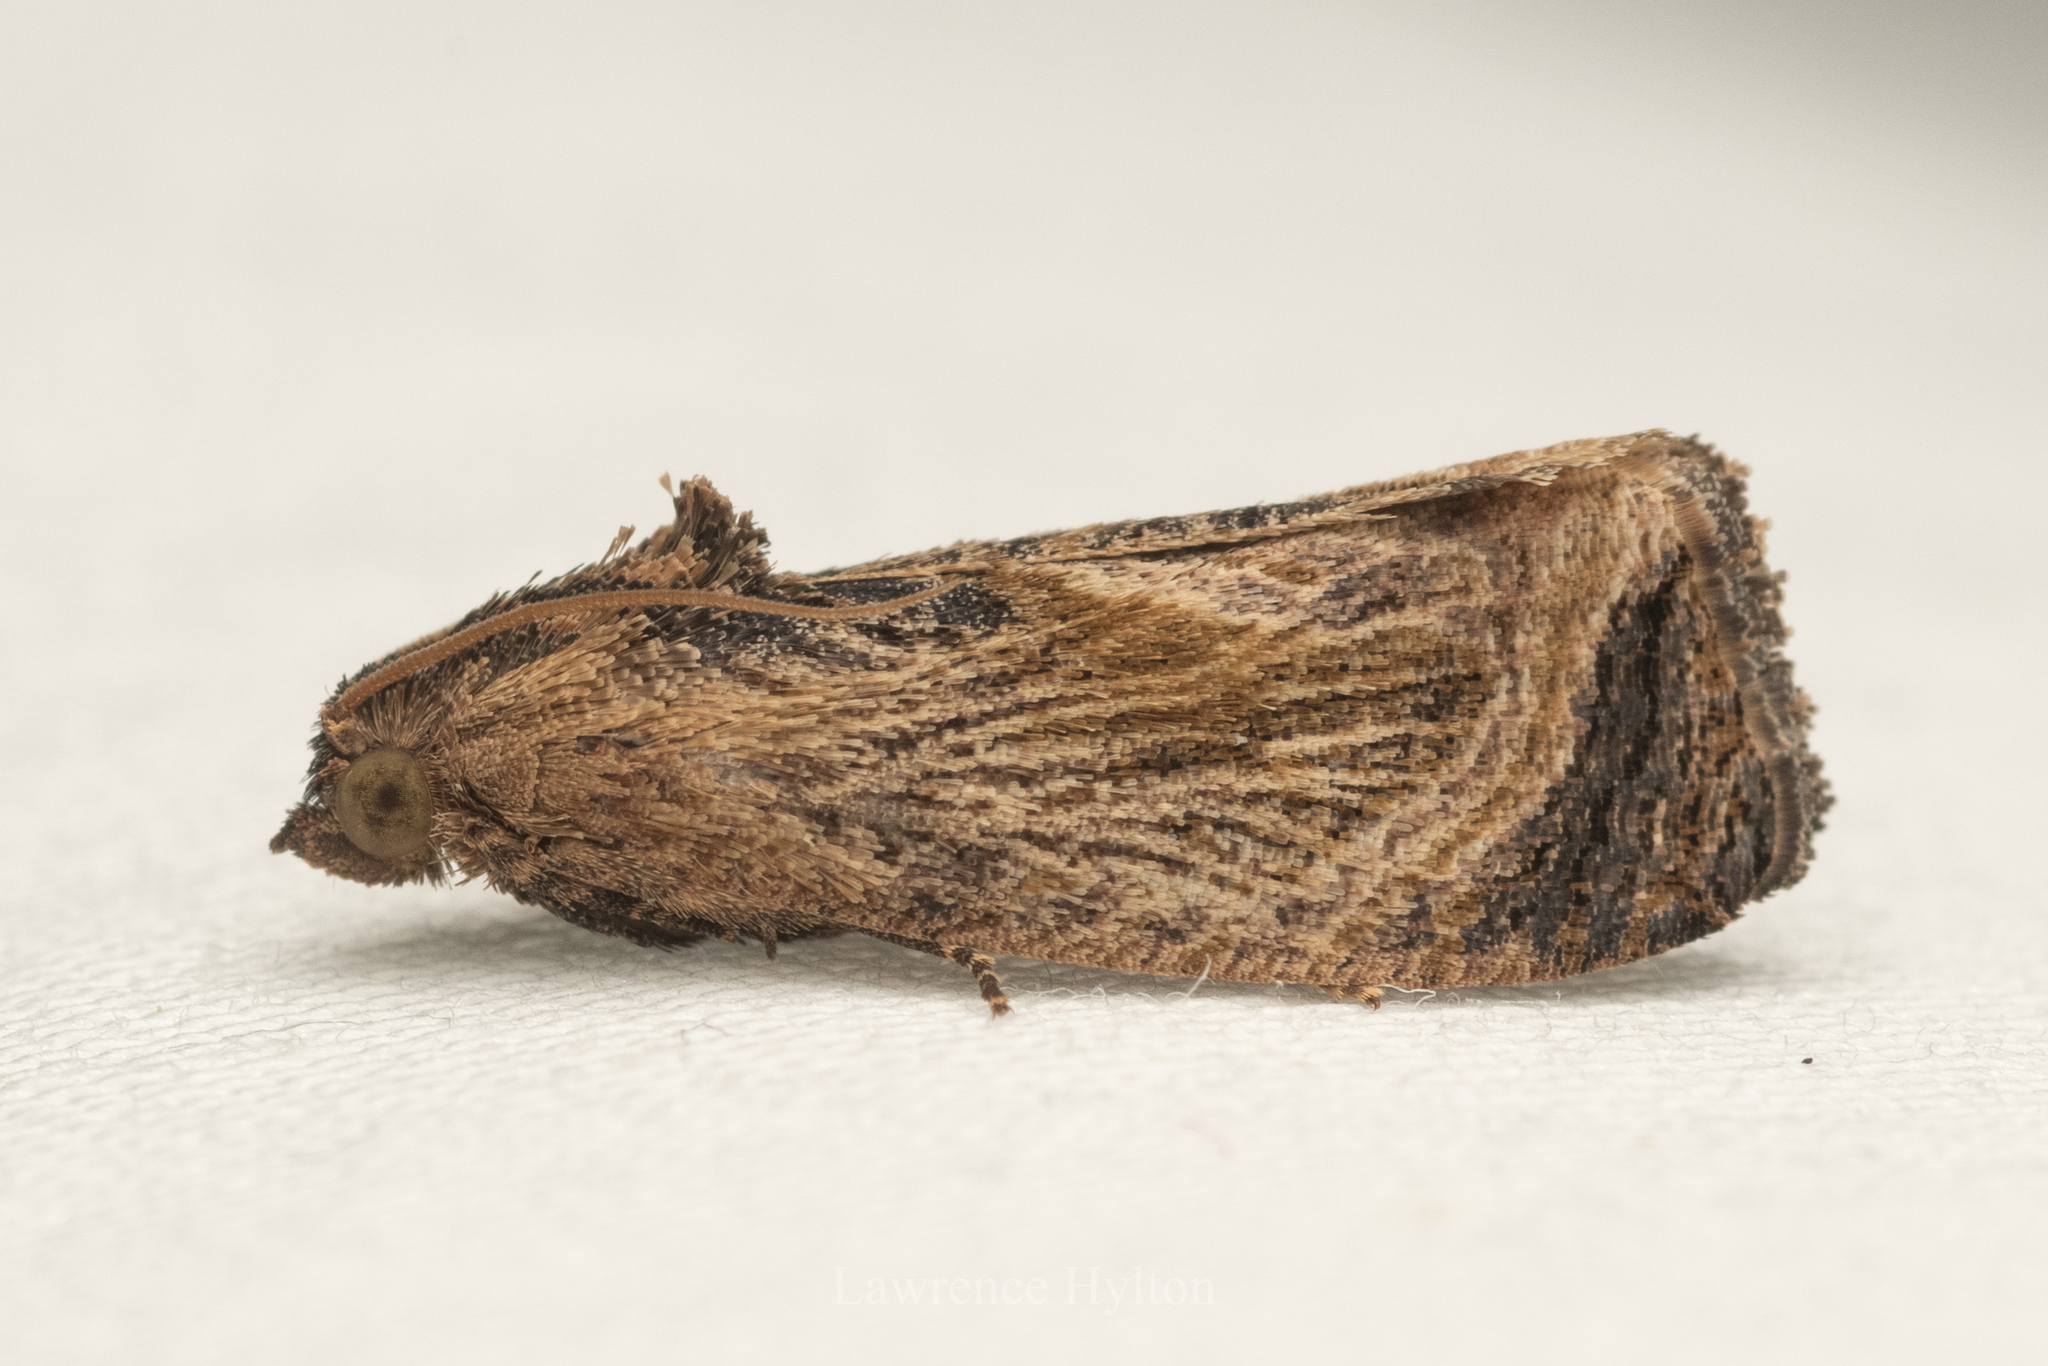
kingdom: Animalia
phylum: Arthropoda
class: Insecta
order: Lepidoptera
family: Tortricidae
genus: Cryptophlebia
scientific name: Cryptophlebia repletana
